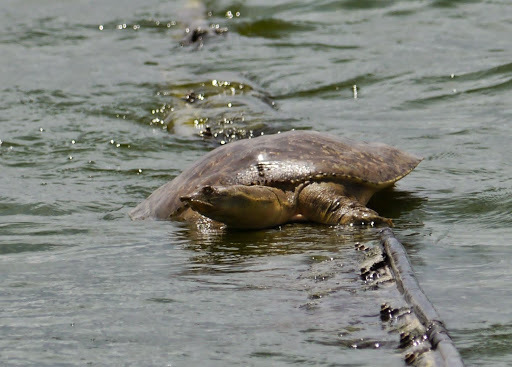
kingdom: Animalia
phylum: Chordata
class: Testudines
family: Trionychidae
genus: Apalone
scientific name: Apalone spinifera
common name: Spiny softshell turtle
